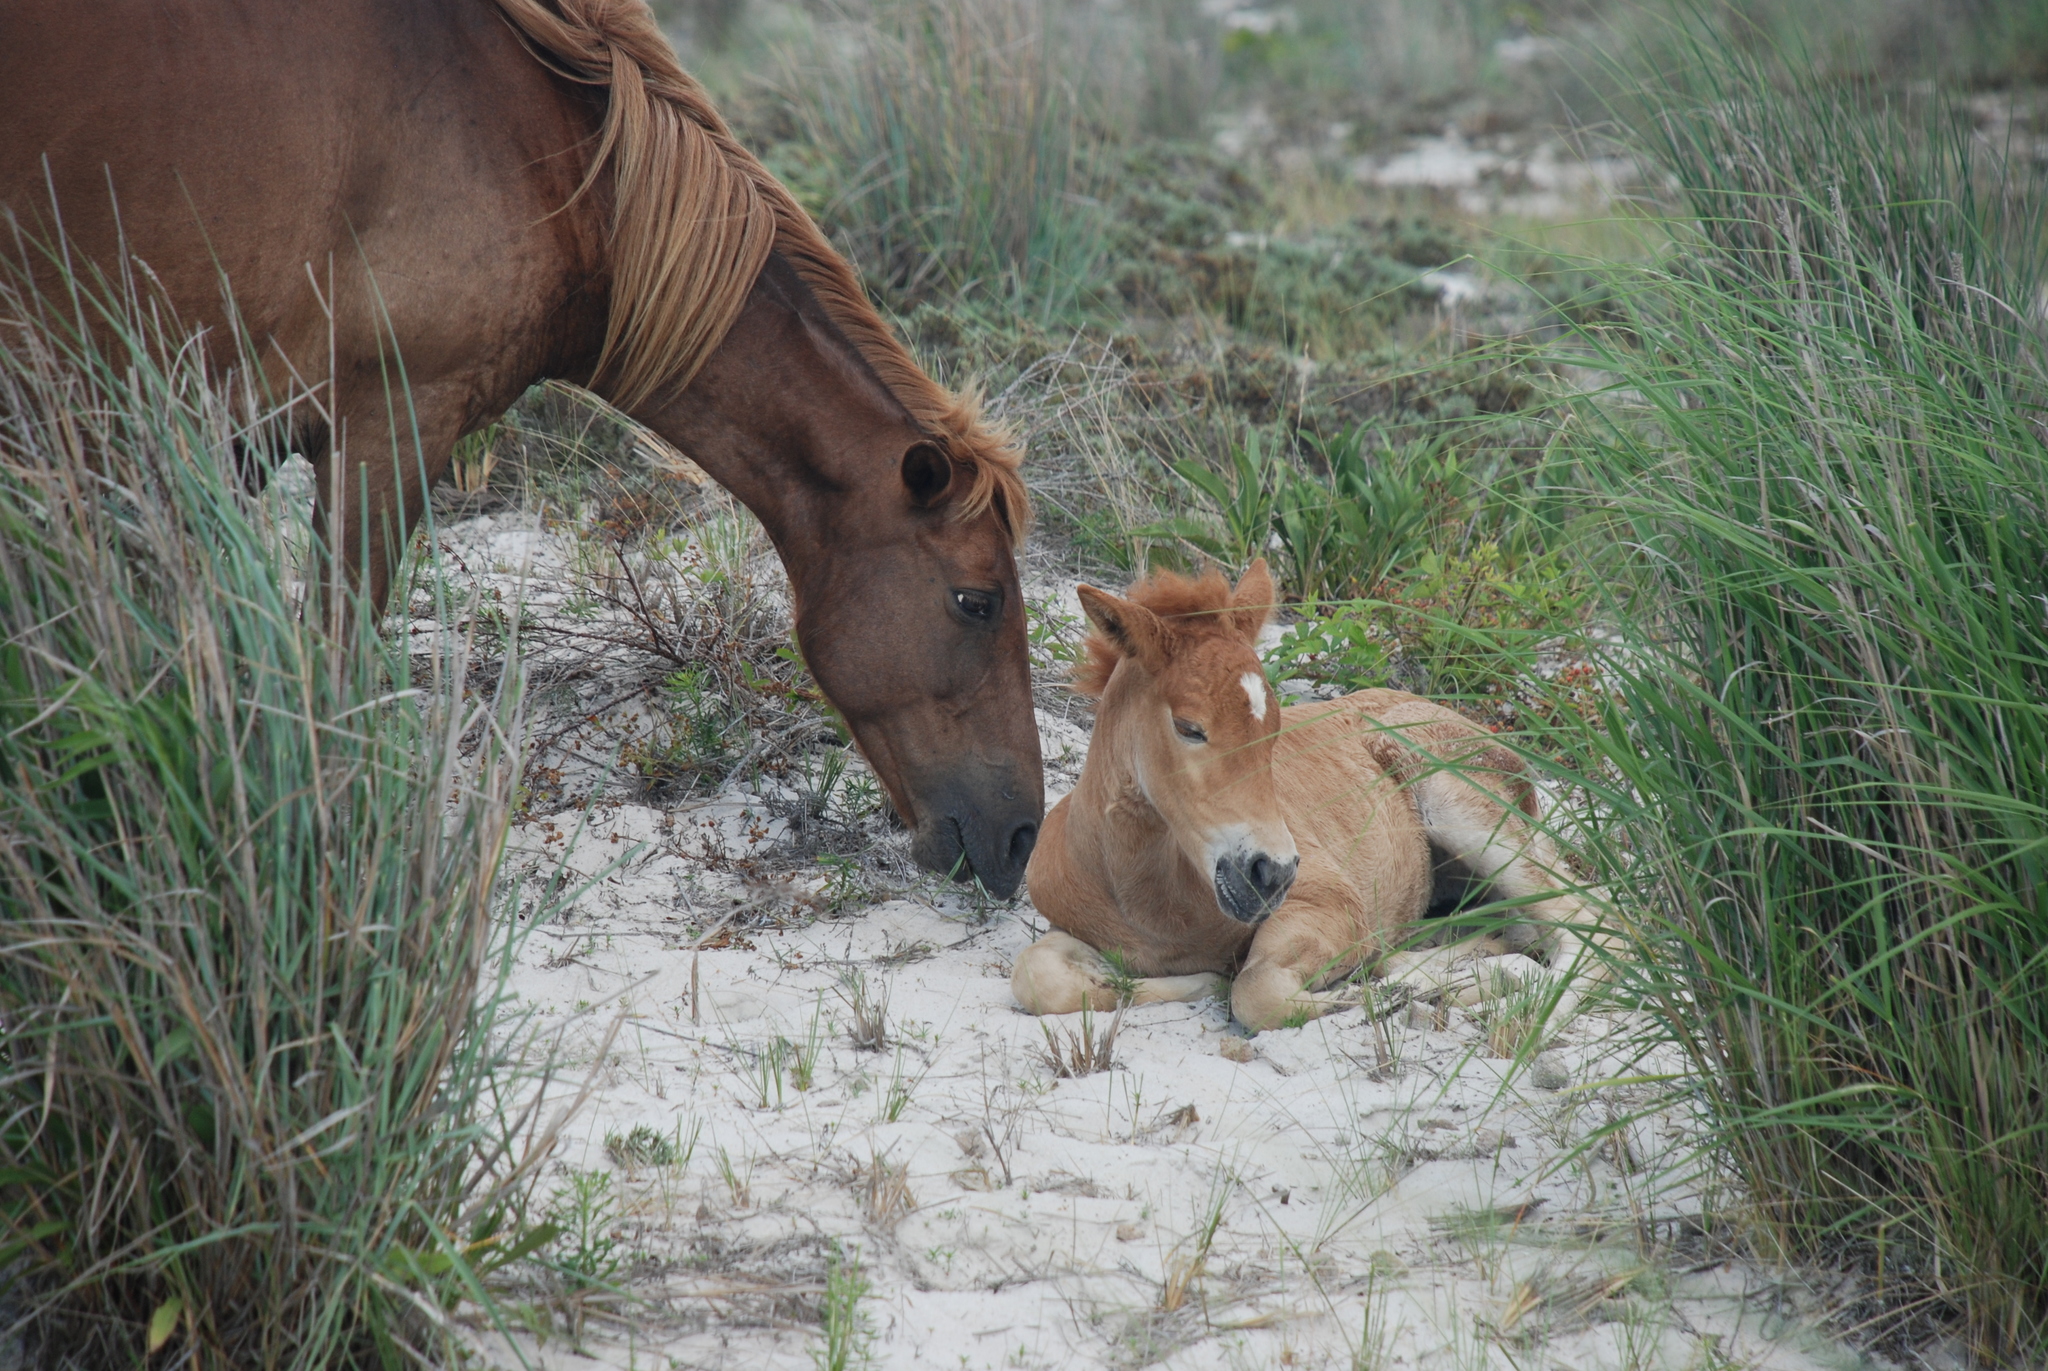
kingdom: Animalia
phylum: Chordata
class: Mammalia
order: Perissodactyla
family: Equidae
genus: Equus
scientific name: Equus caballus
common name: Horse
